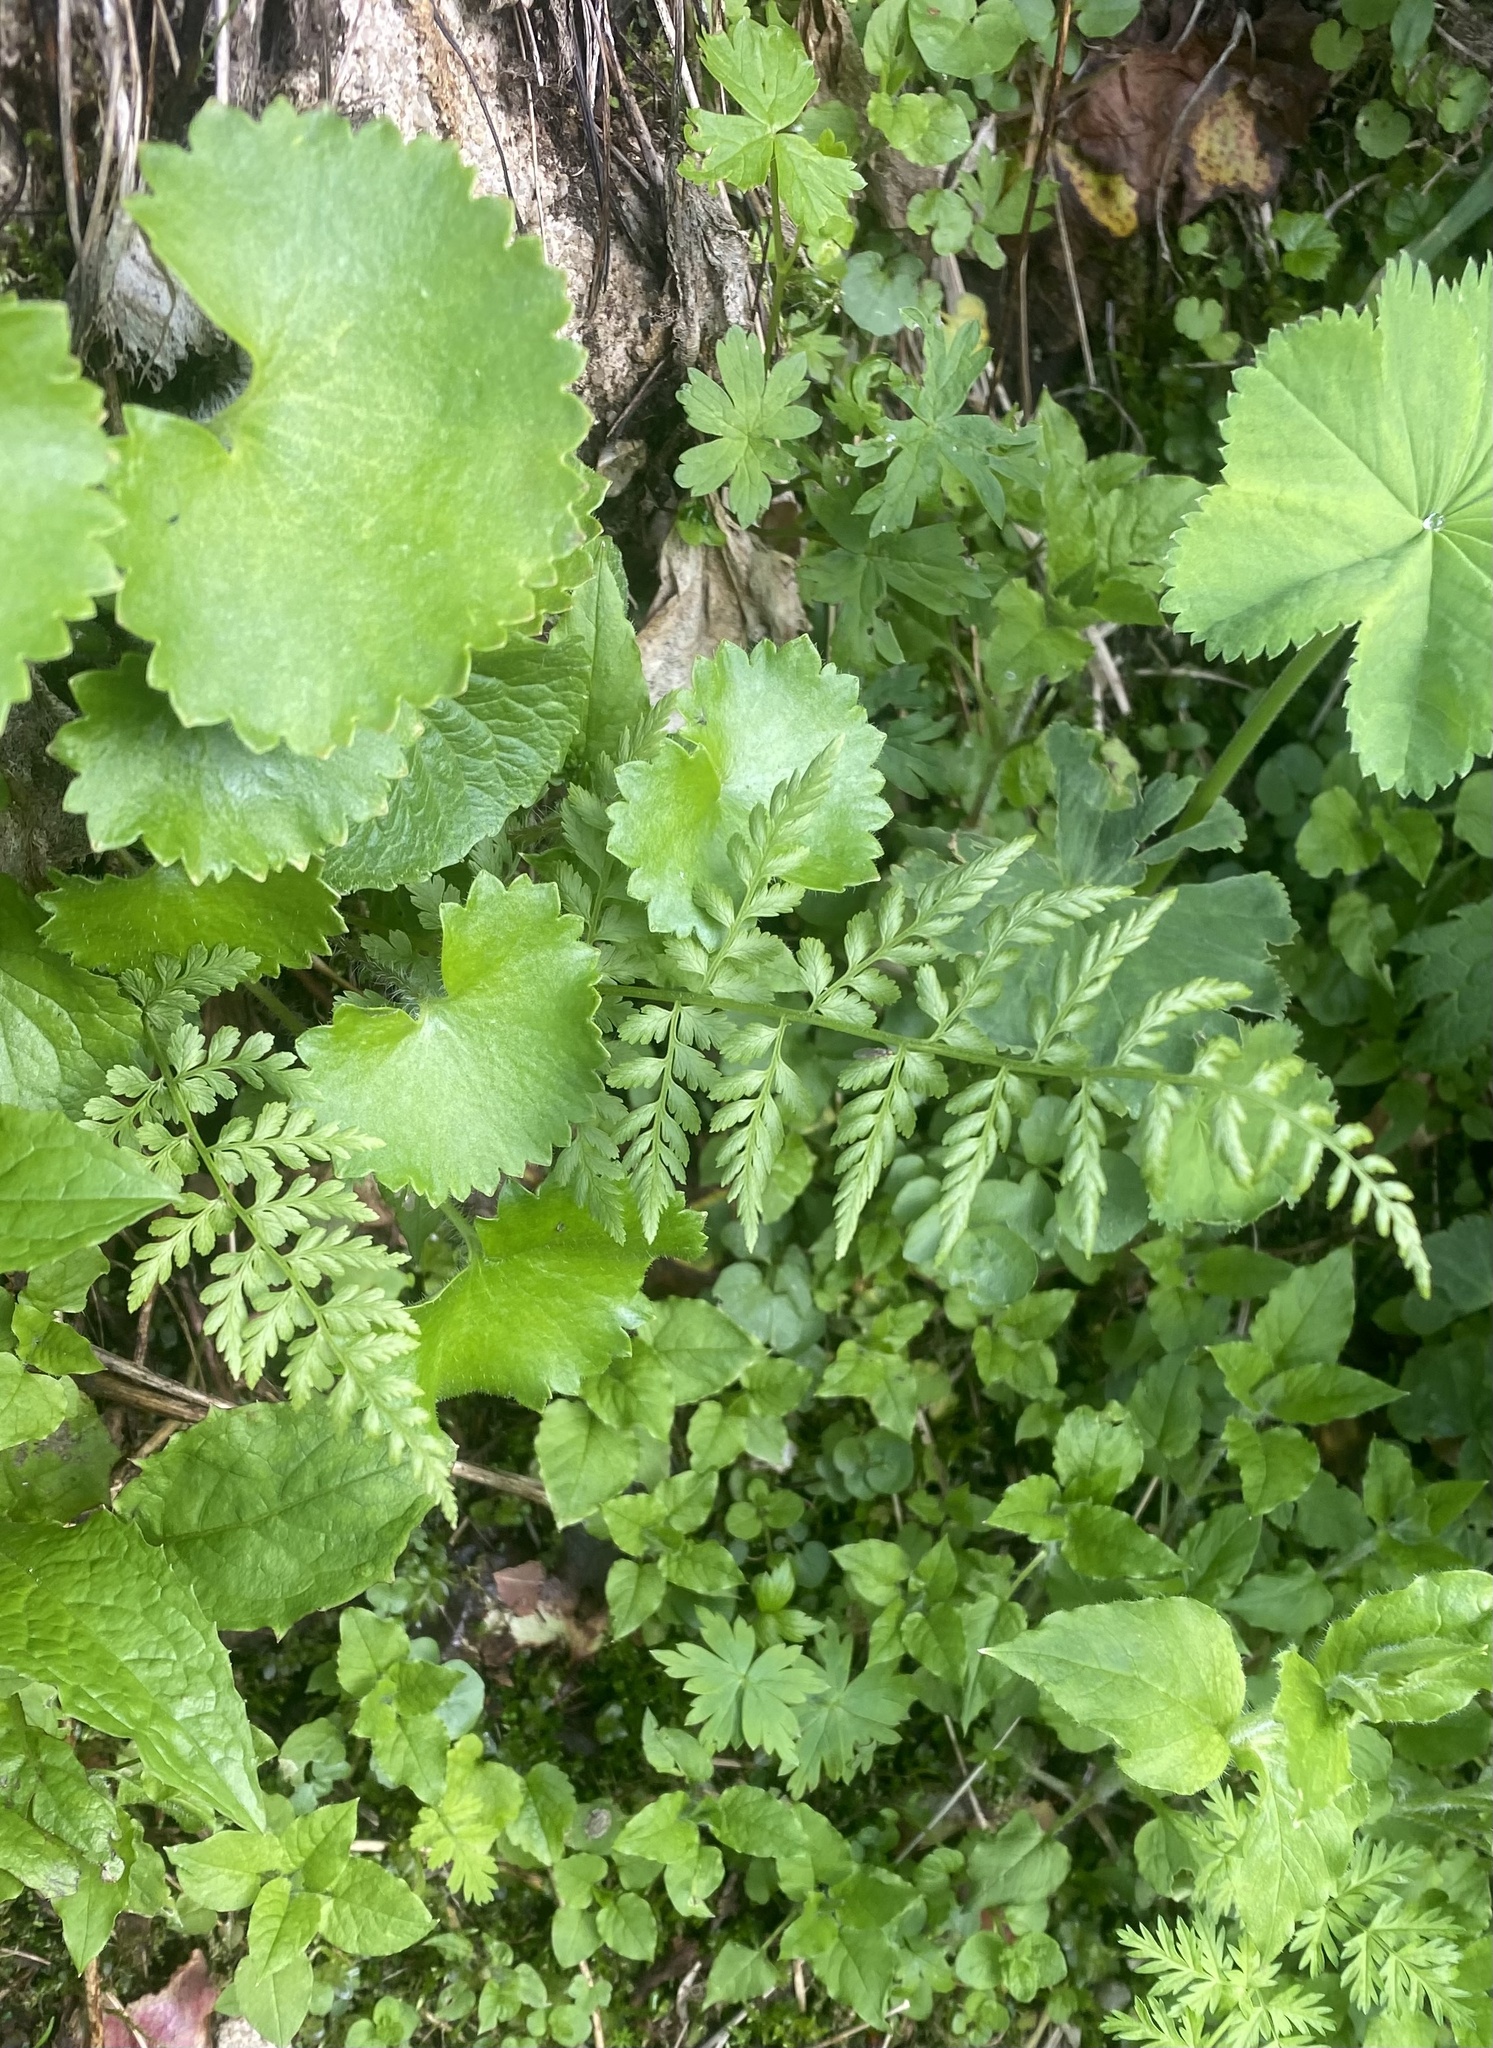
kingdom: Plantae
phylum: Tracheophyta
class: Polypodiopsida
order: Polypodiales
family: Cystopteridaceae
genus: Cystopteris
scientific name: Cystopteris fragilis
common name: Brittle bladder fern
